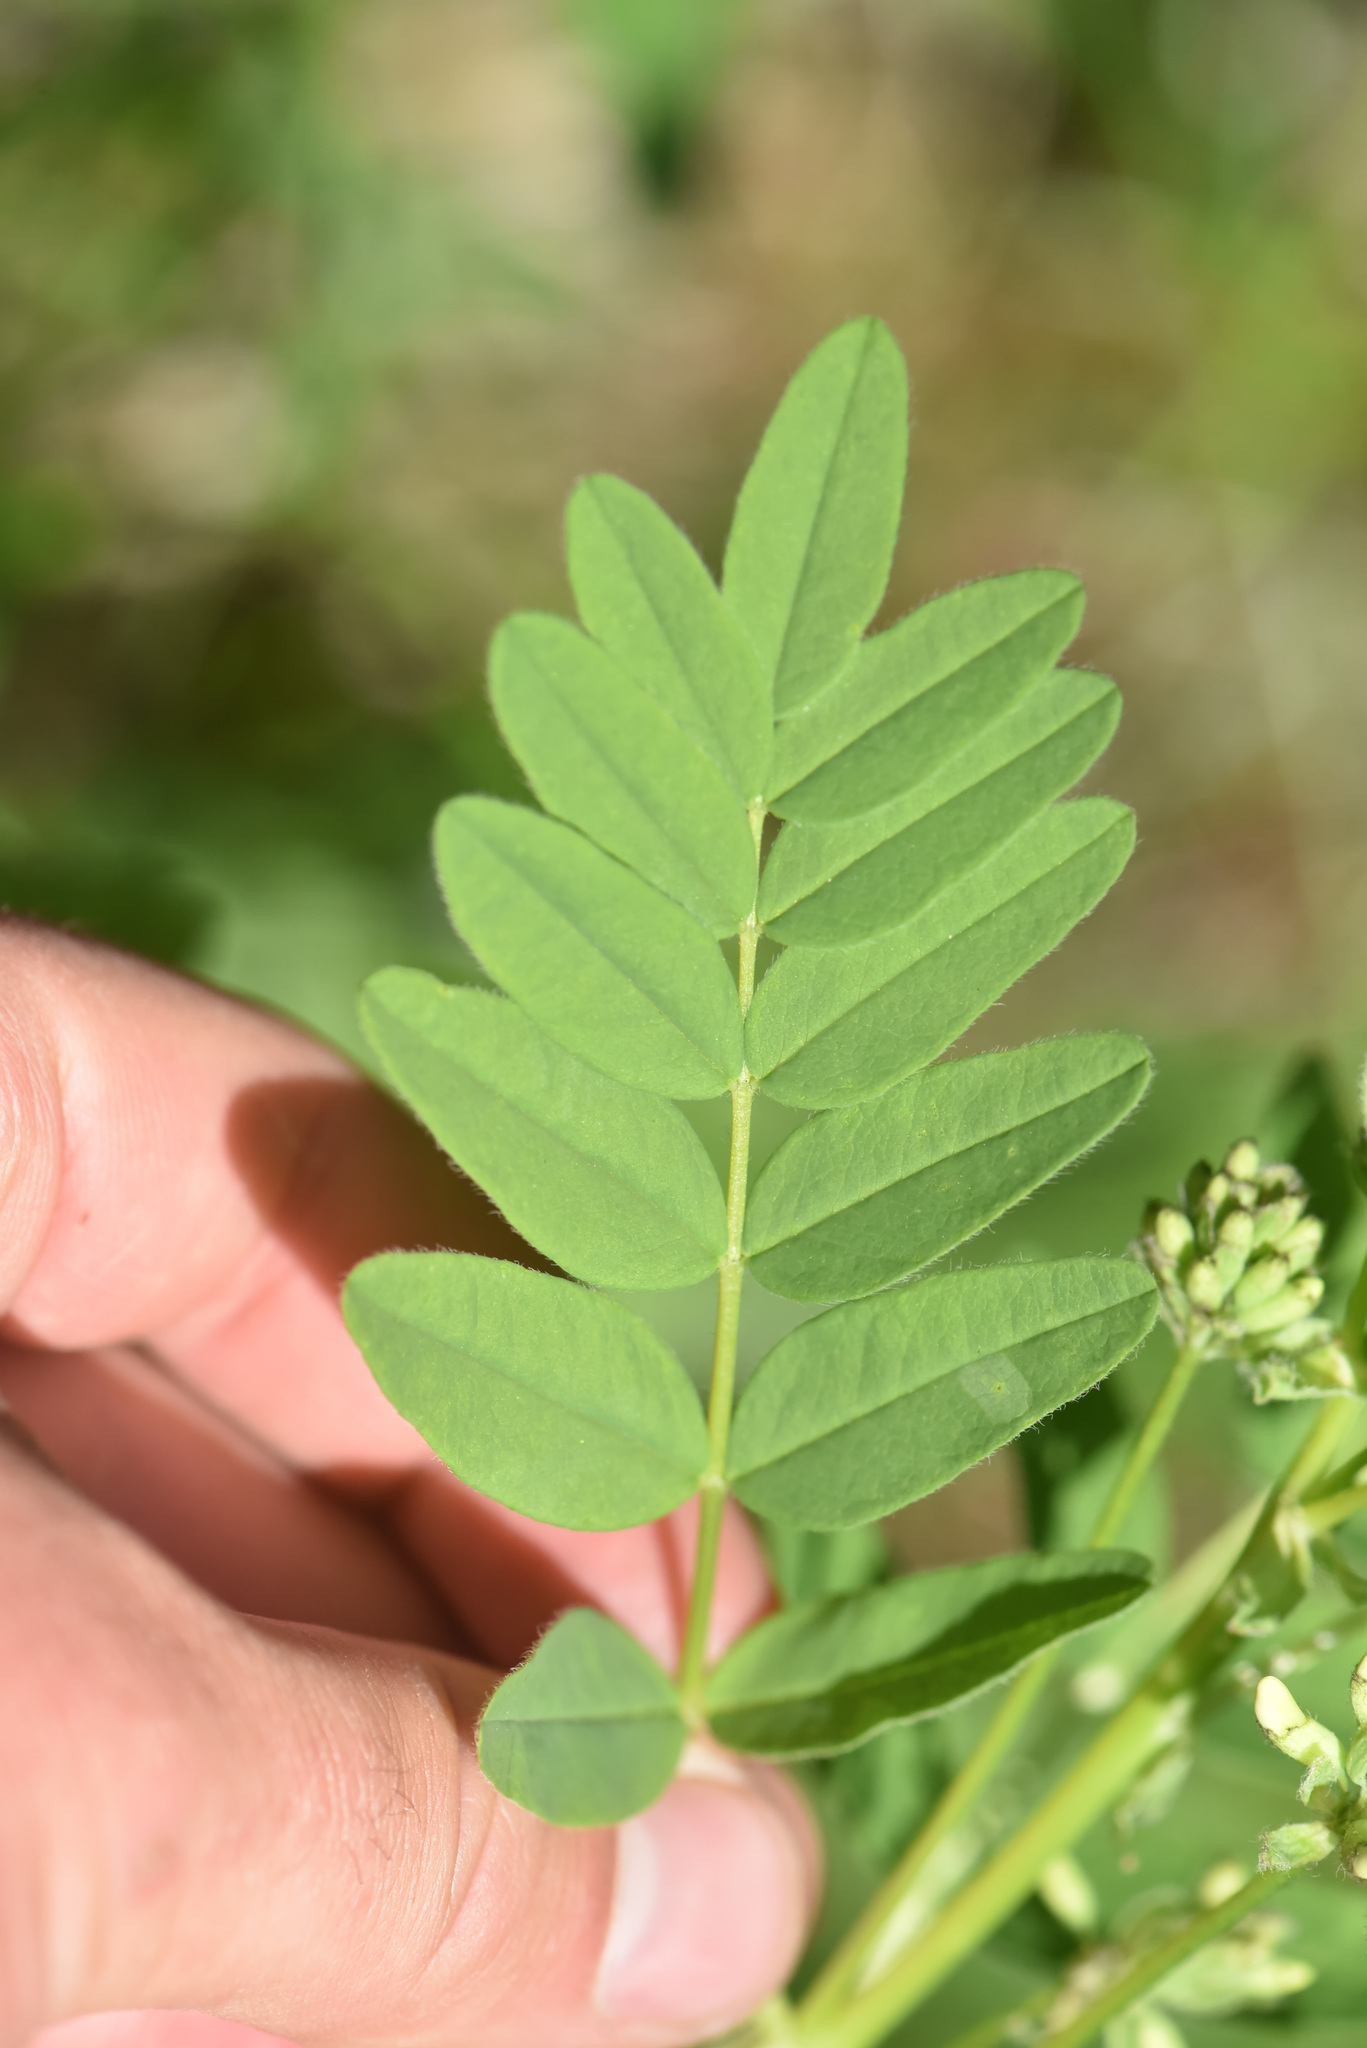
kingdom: Plantae
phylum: Tracheophyta
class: Magnoliopsida
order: Fabales
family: Fabaceae
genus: Astragalus
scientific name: Astragalus americanus
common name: American milk-vetch
